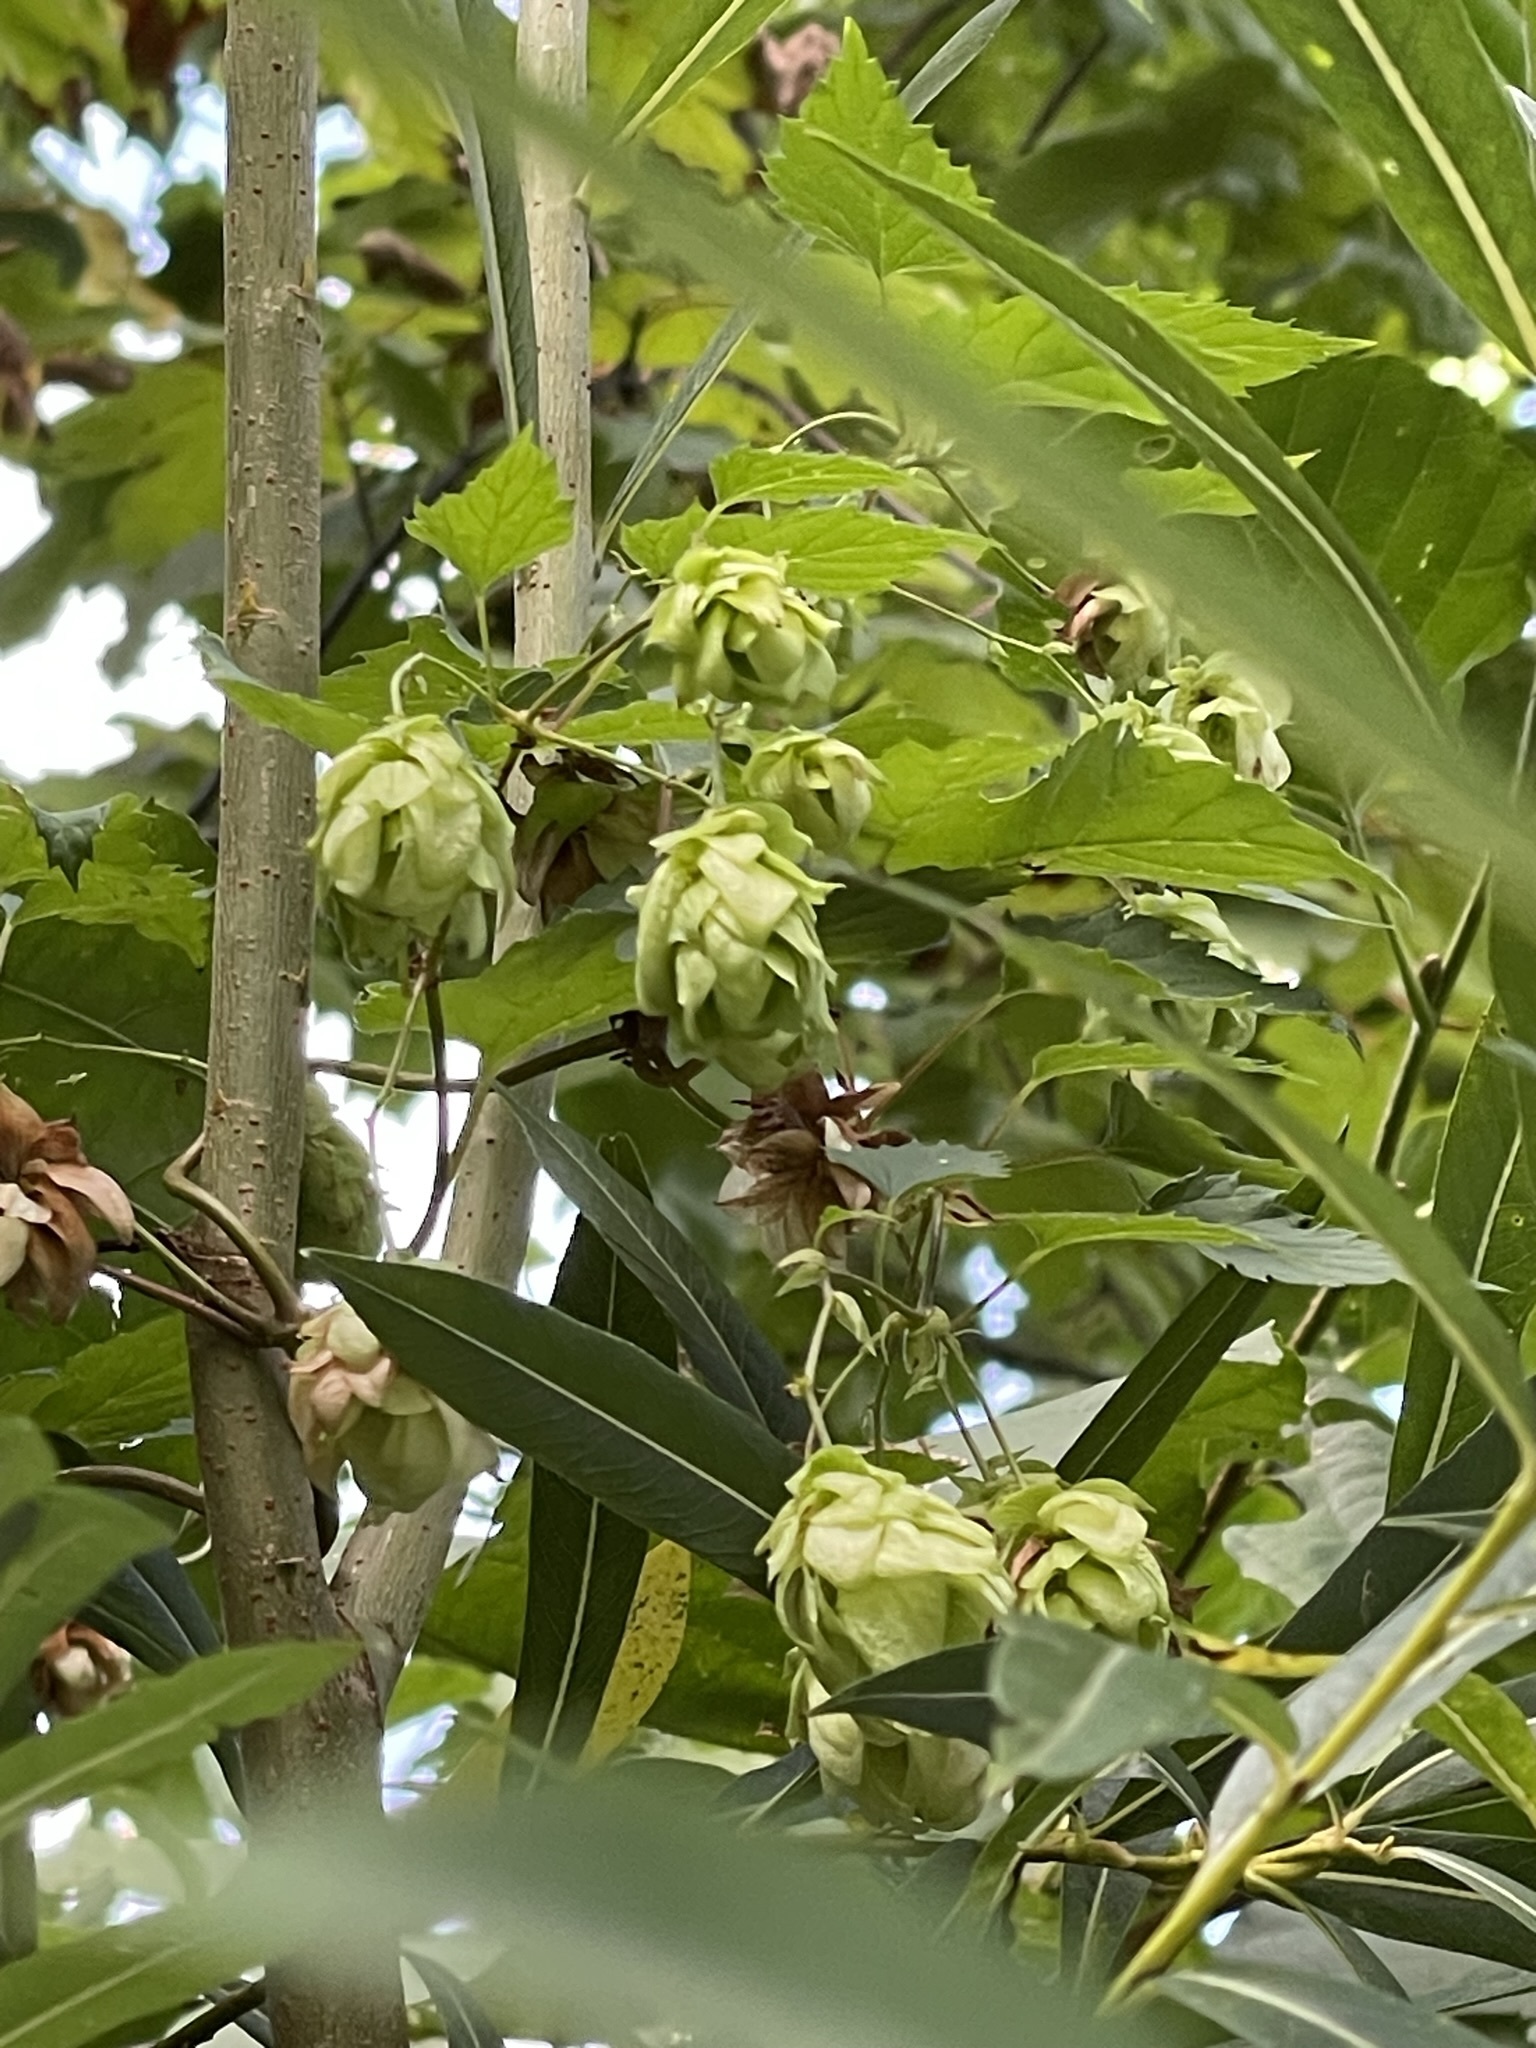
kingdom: Plantae
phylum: Tracheophyta
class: Magnoliopsida
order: Rosales
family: Cannabaceae
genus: Humulus
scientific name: Humulus lupulus
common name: Hop
